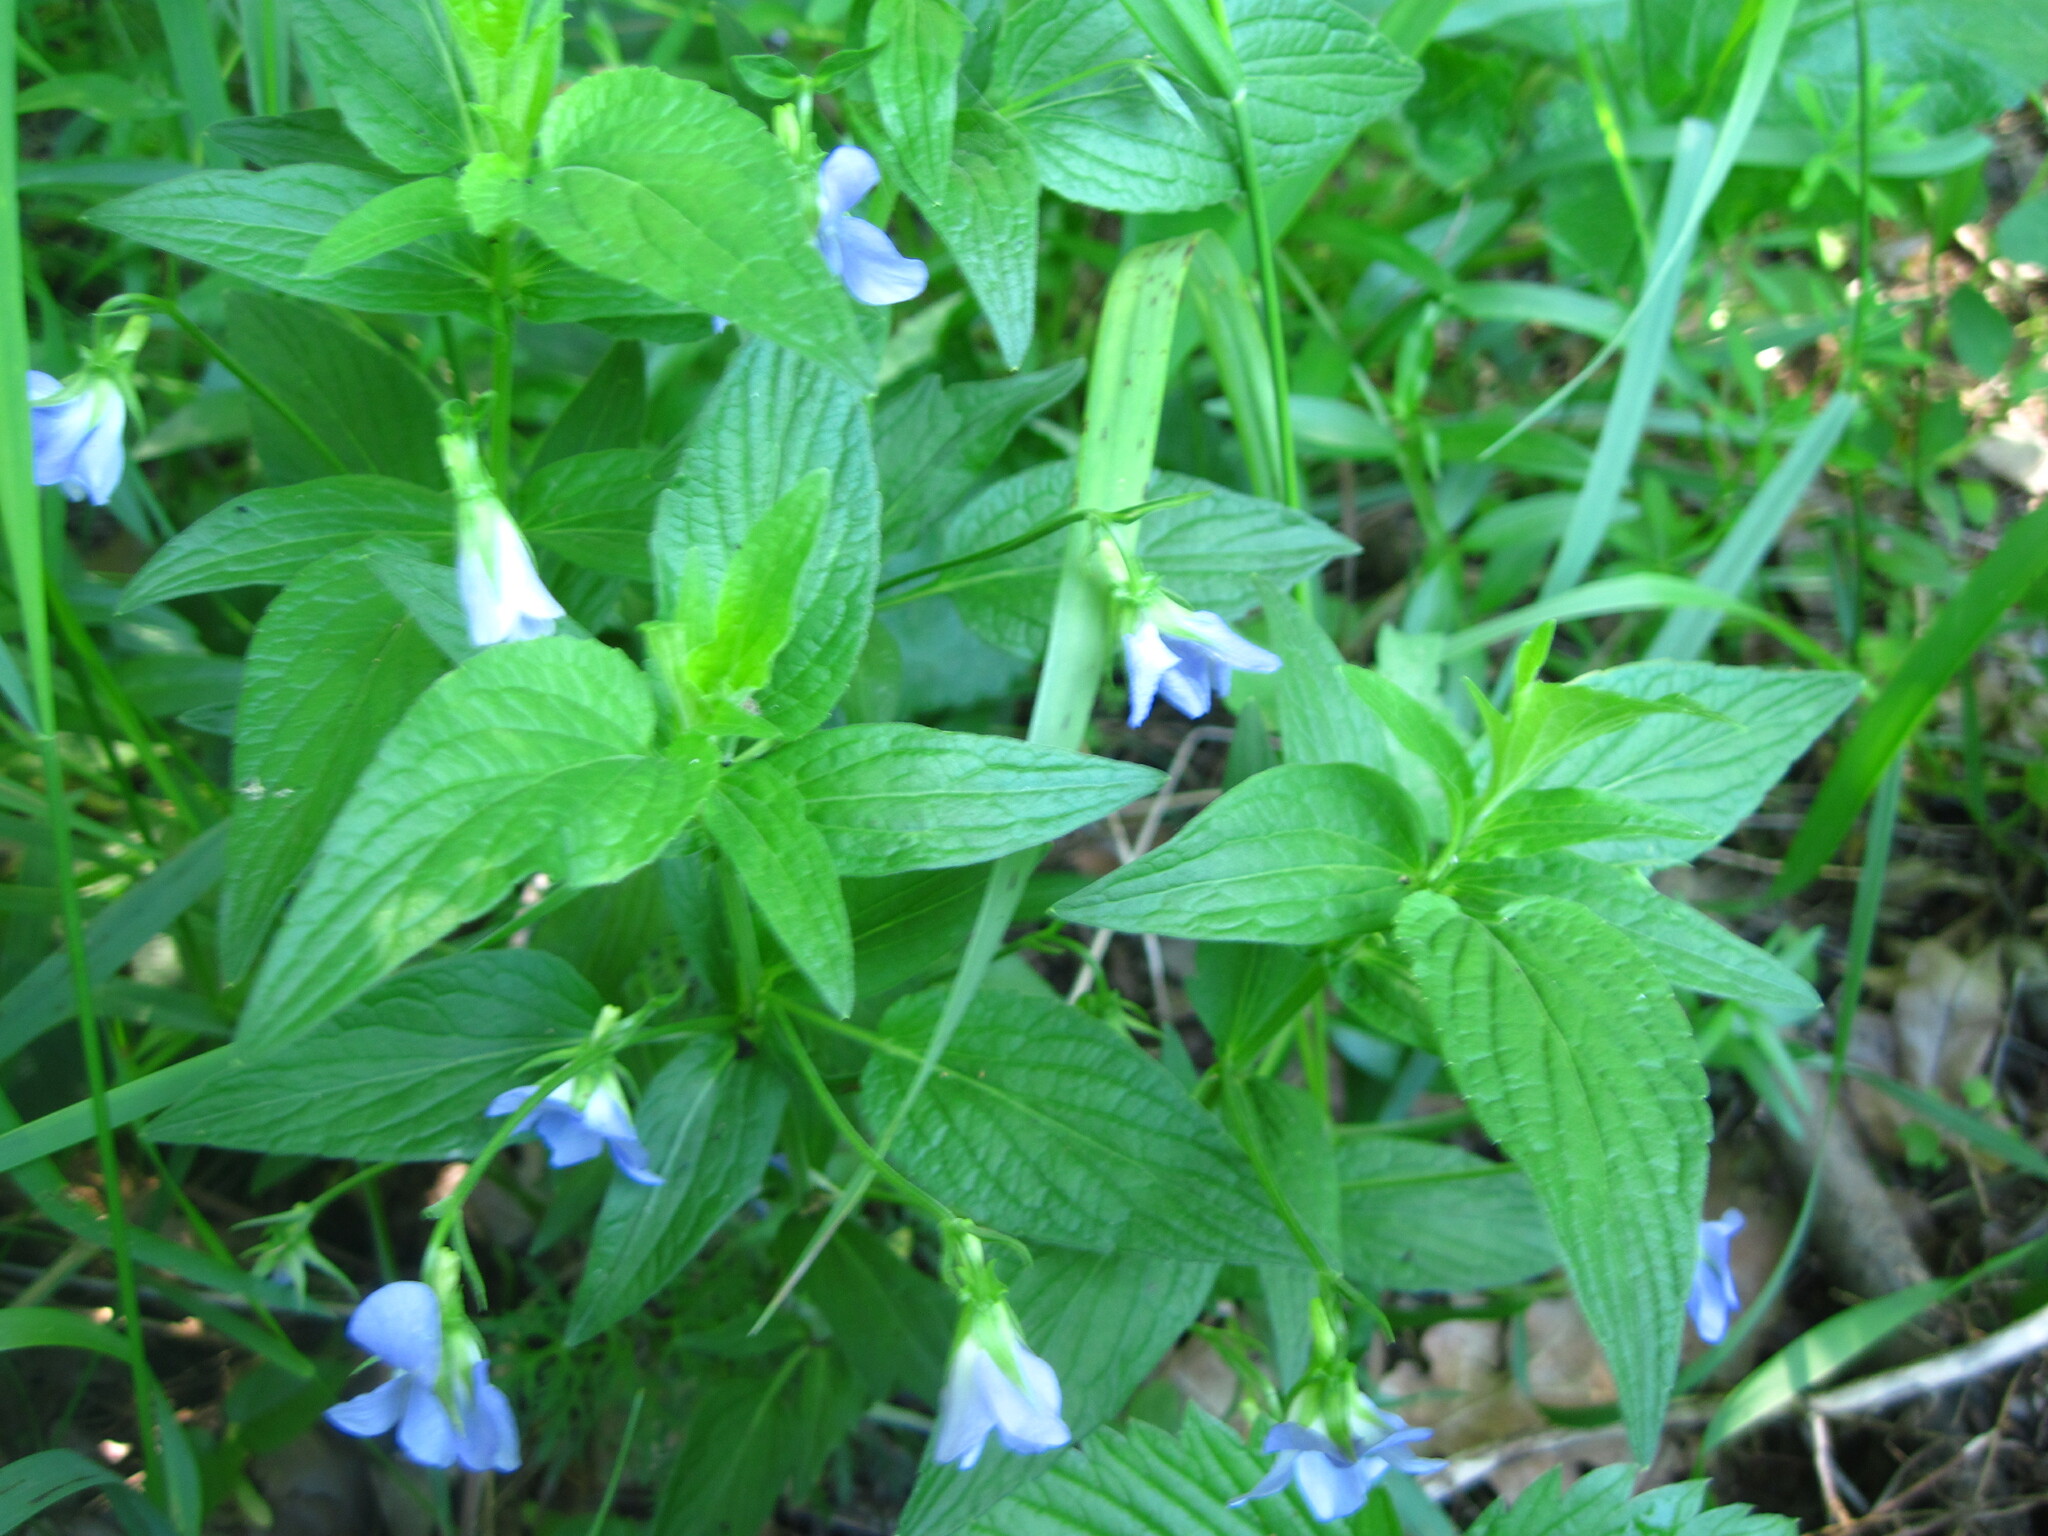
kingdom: Plantae
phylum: Tracheophyta
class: Magnoliopsida
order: Malpighiales
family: Violaceae
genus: Viola
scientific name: Viola elatior
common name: Tall violet
